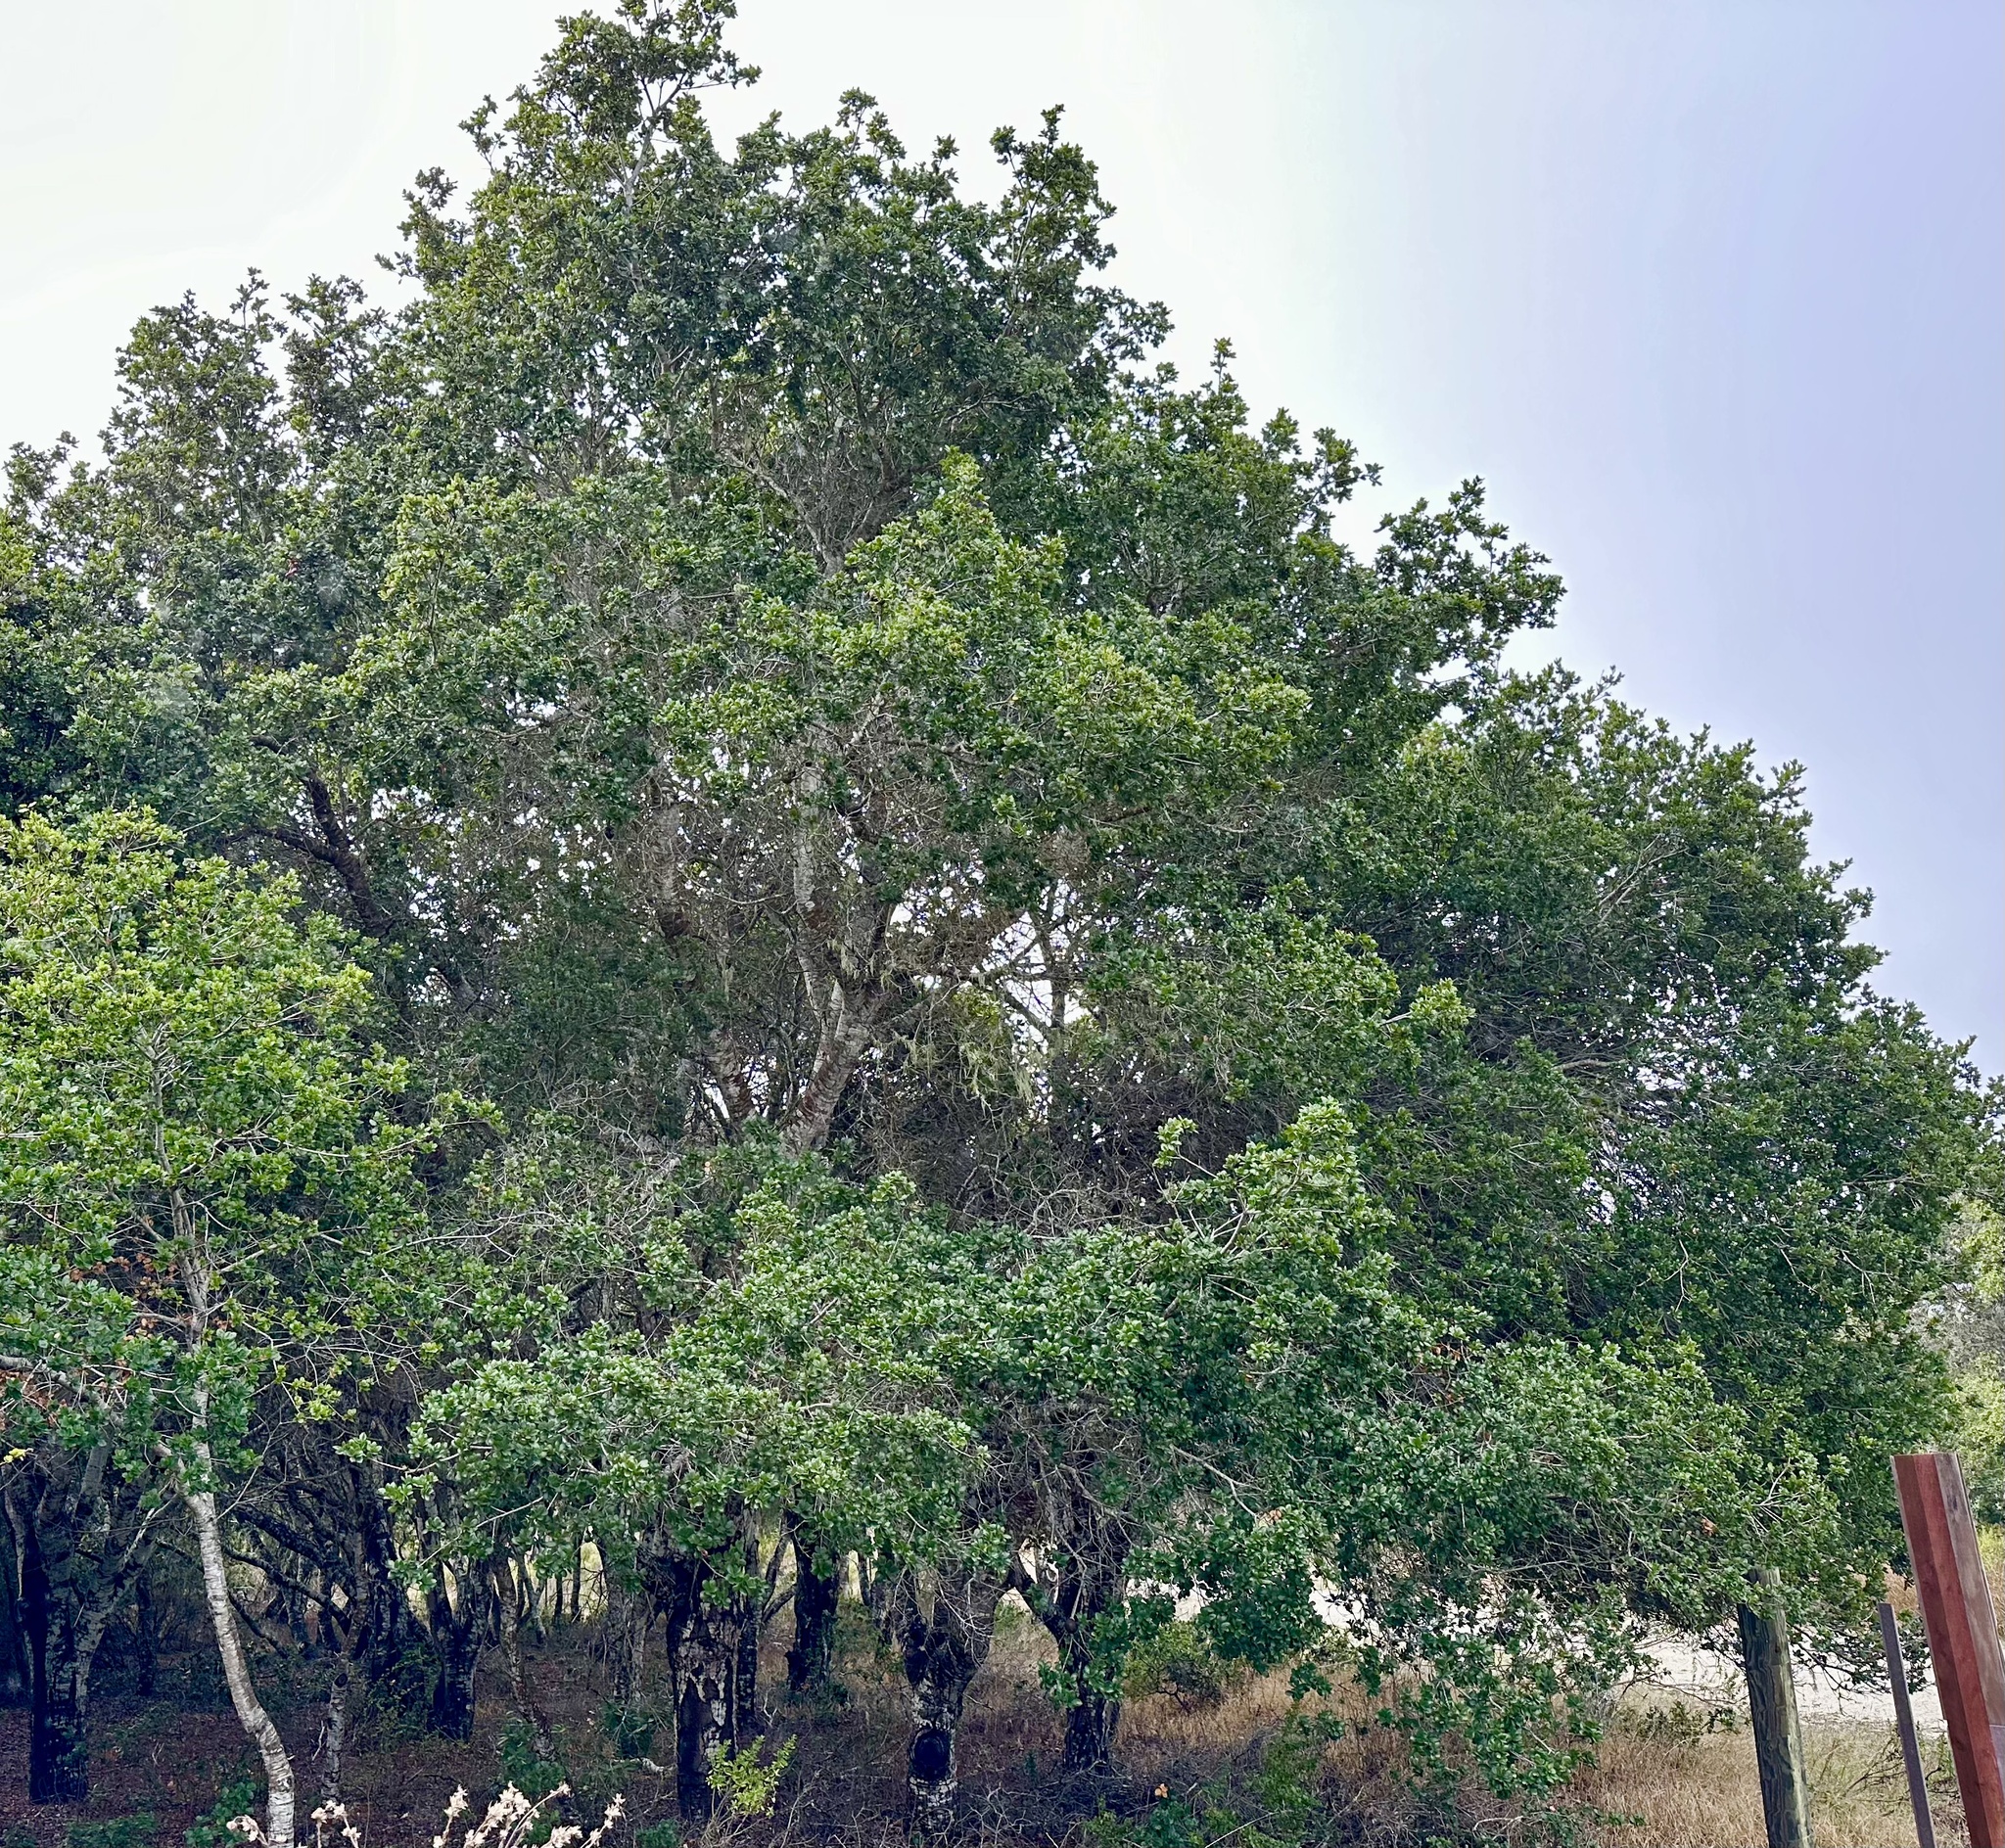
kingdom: Plantae
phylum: Tracheophyta
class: Magnoliopsida
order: Fagales
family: Fagaceae
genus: Quercus
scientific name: Quercus agrifolia
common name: California live oak
